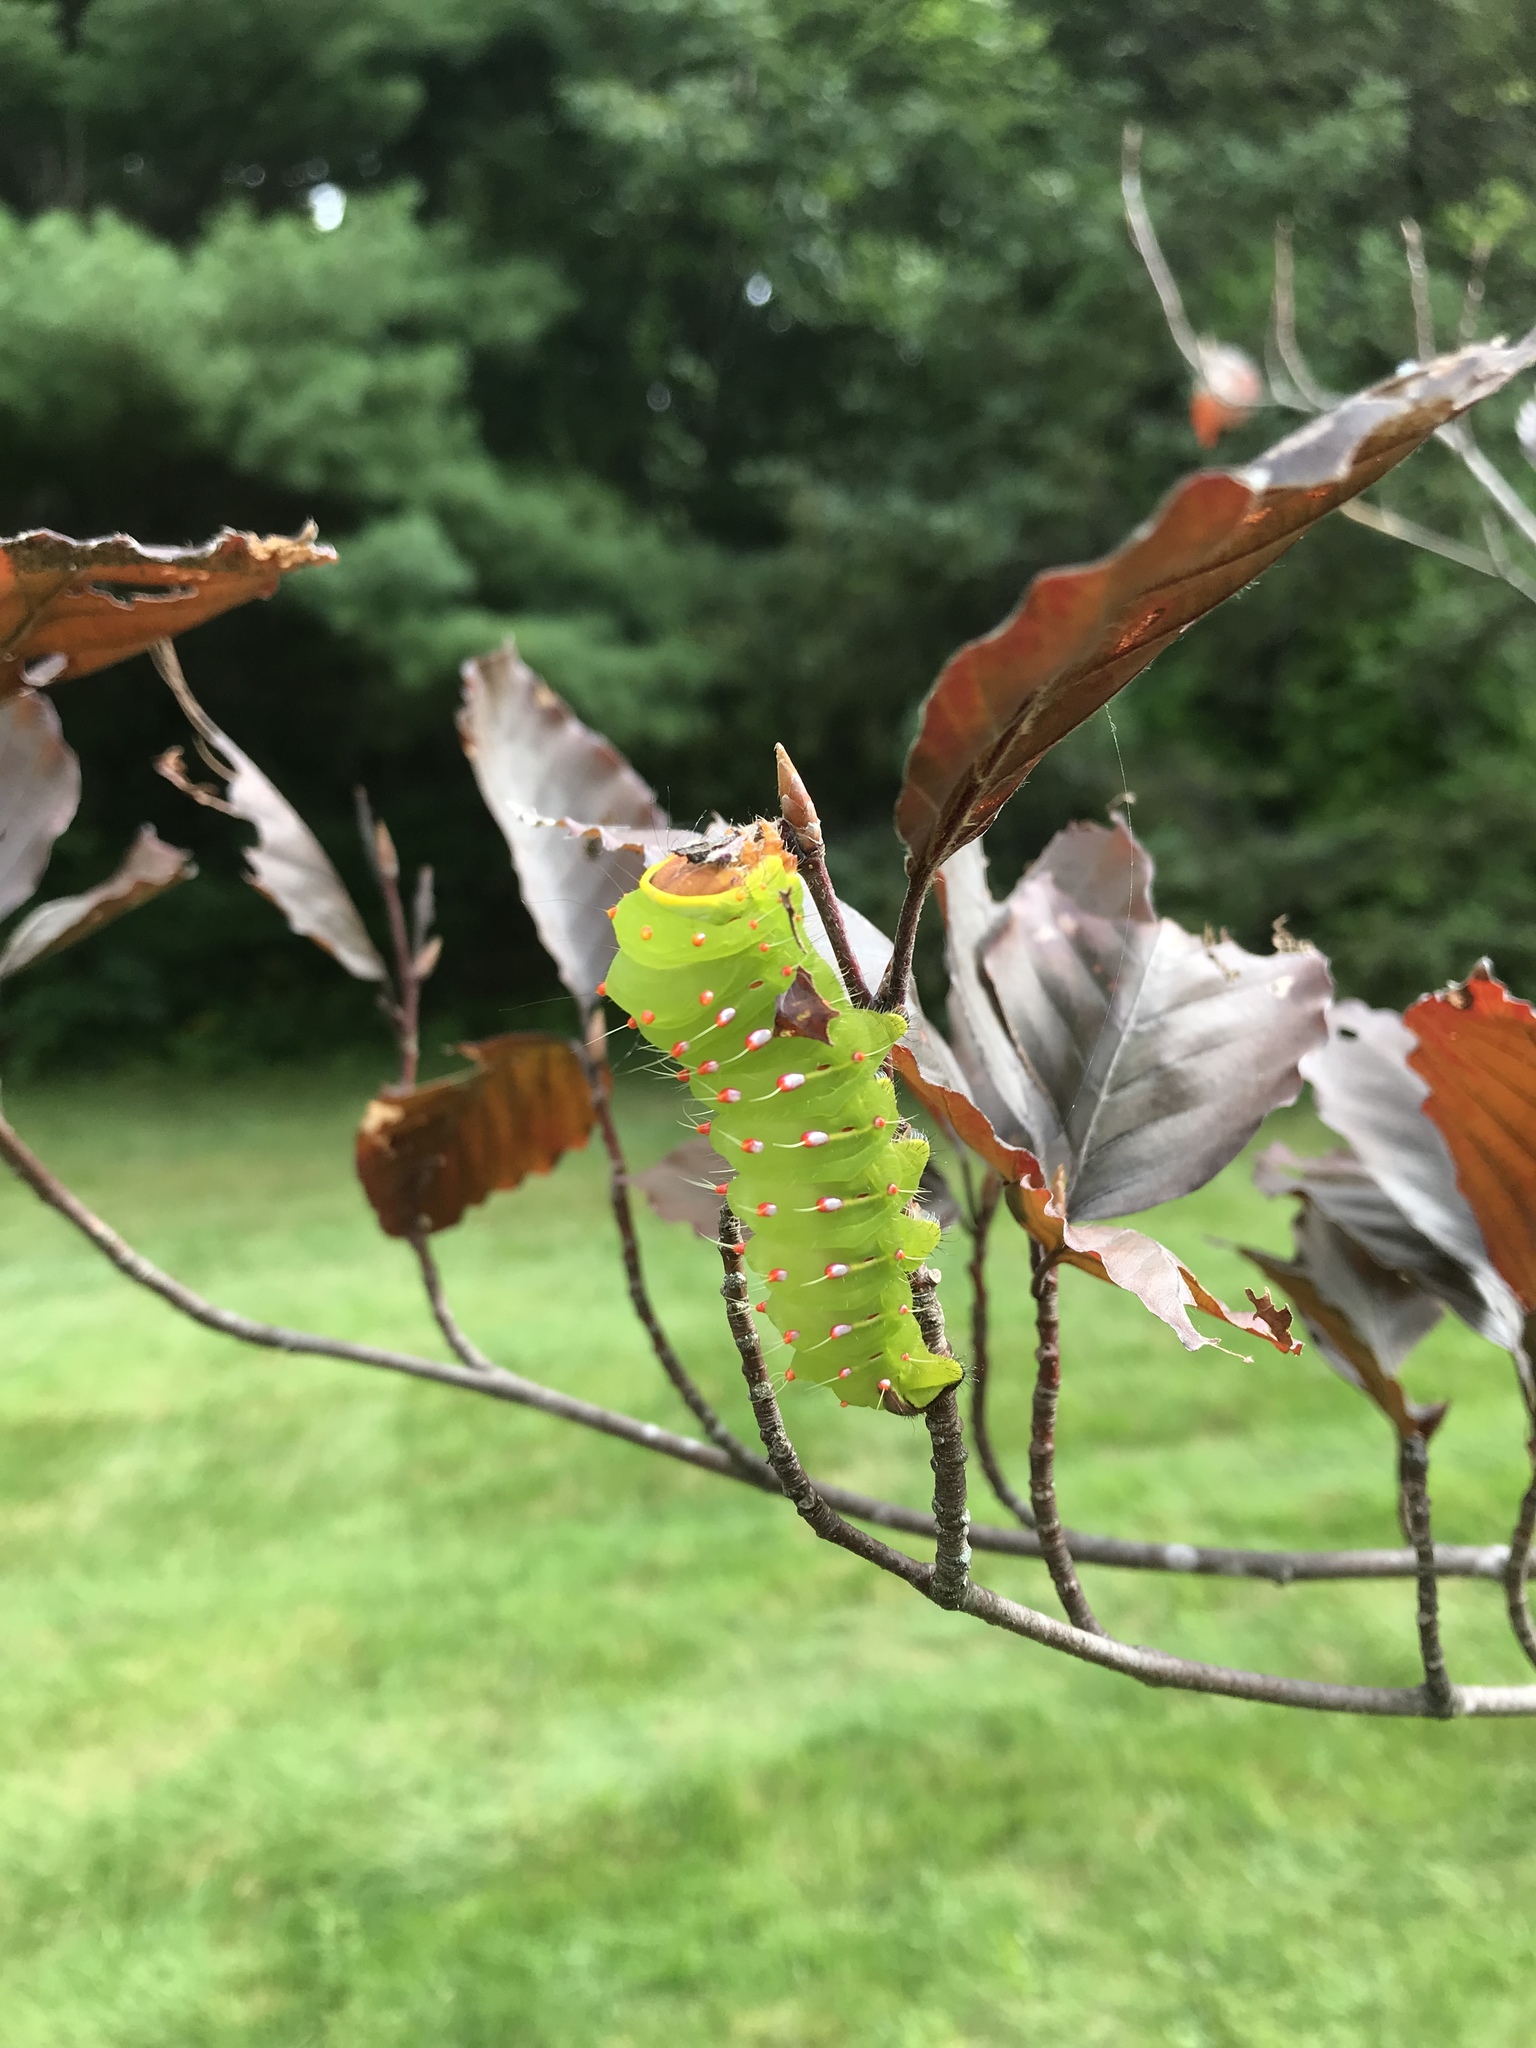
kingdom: Animalia
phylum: Arthropoda
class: Insecta
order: Lepidoptera
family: Saturniidae
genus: Antheraea
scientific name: Antheraea polyphemus
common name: Polyphemus moth
